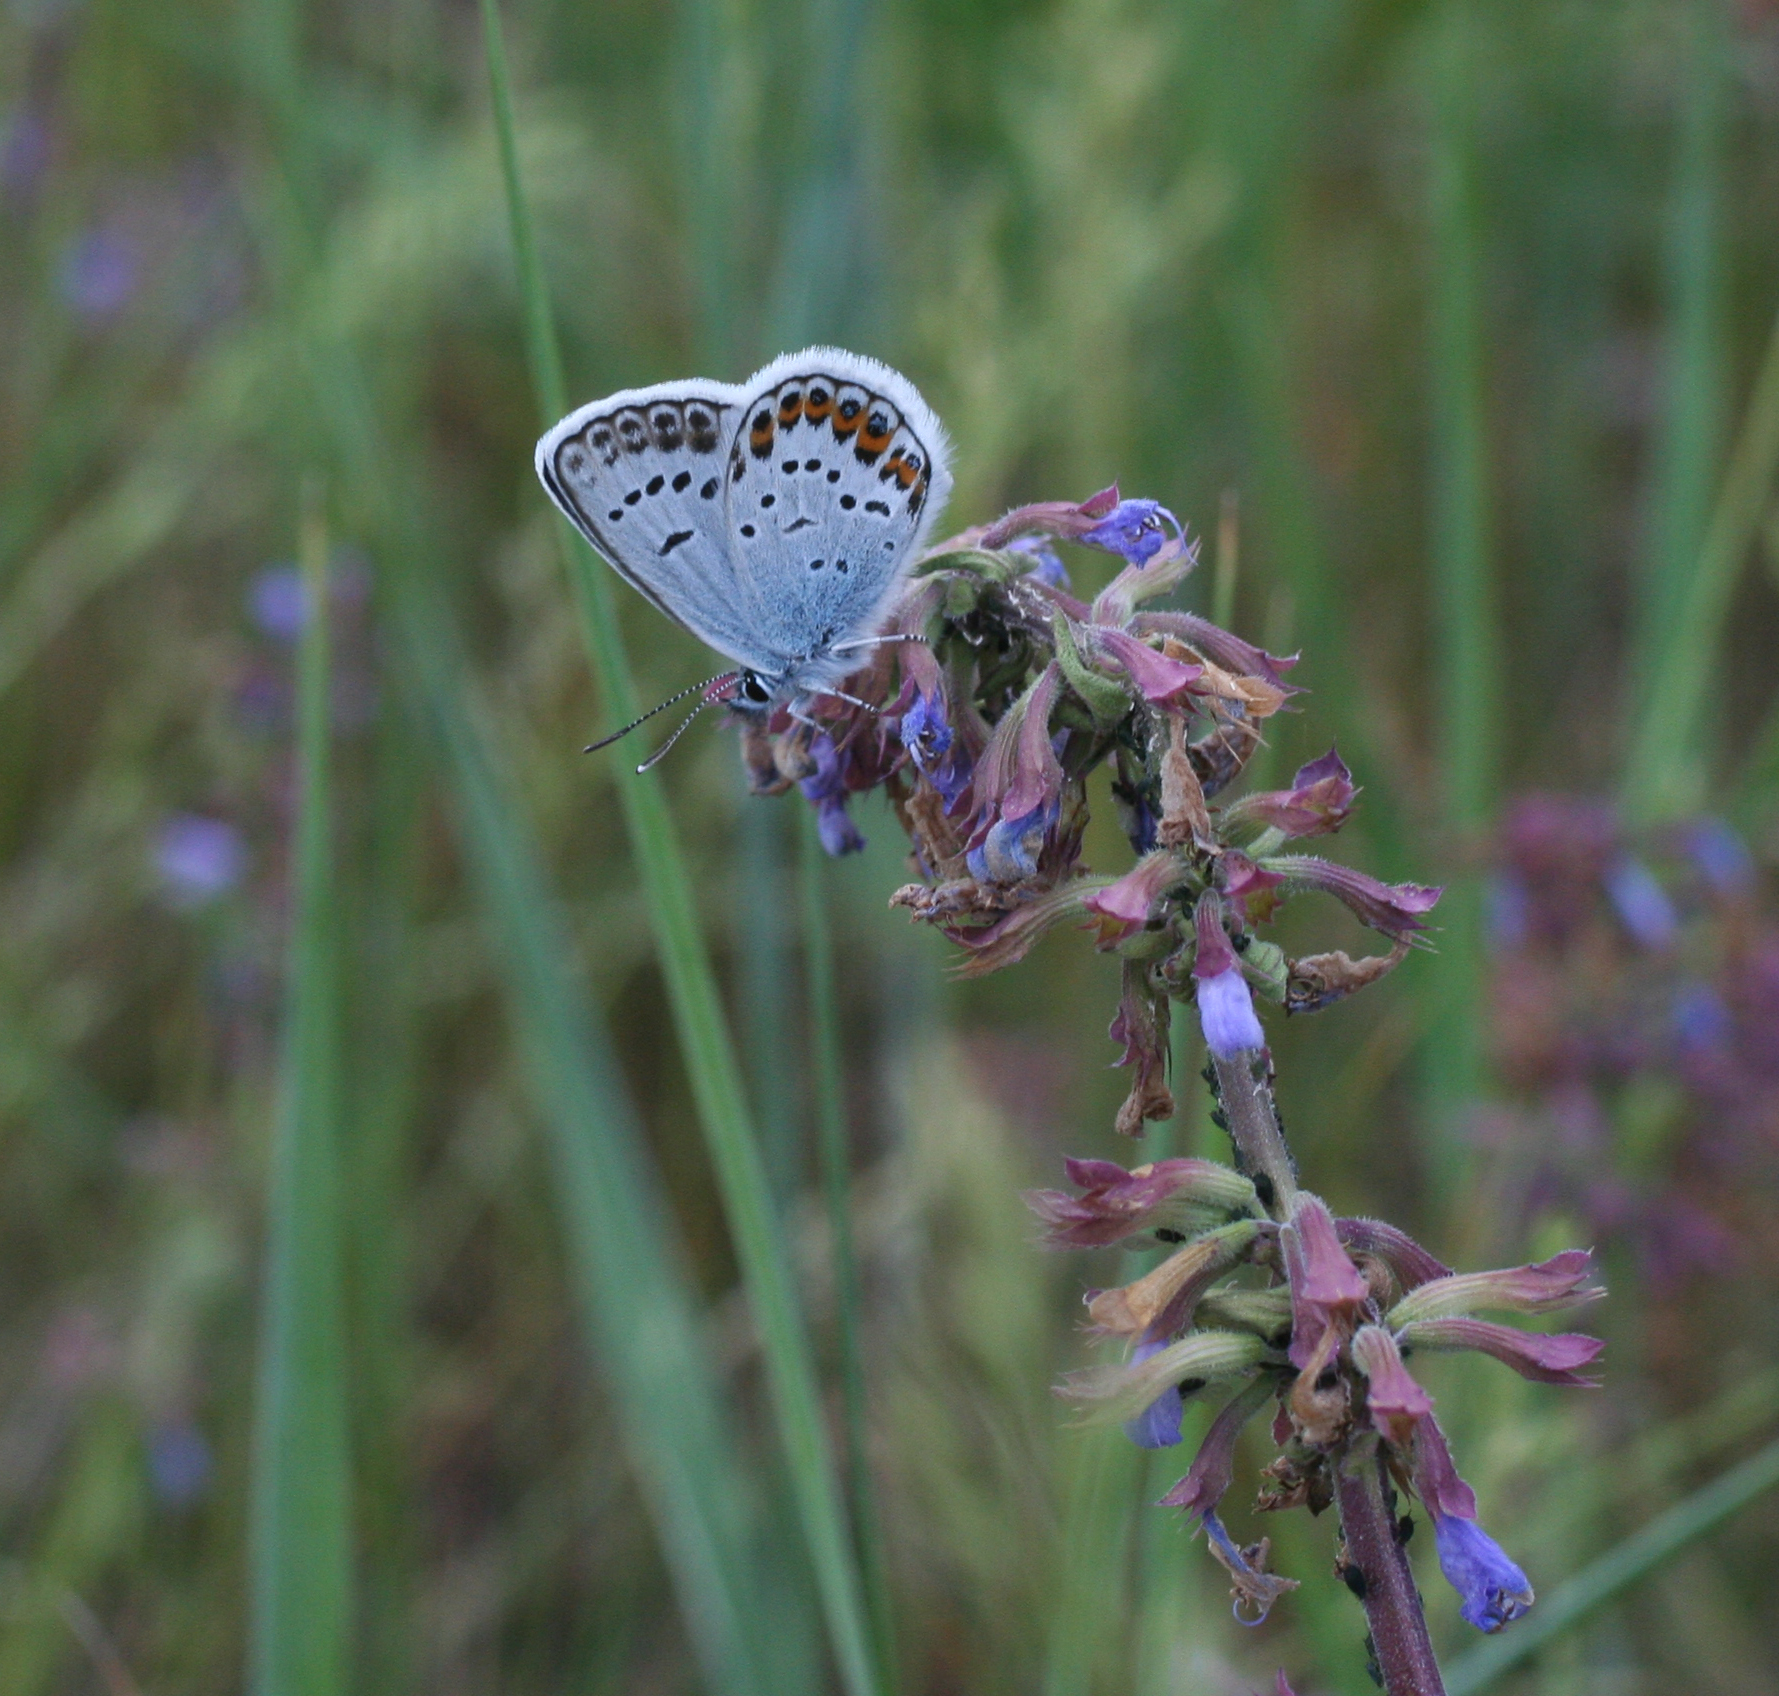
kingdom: Animalia
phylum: Arthropoda
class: Insecta
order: Lepidoptera
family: Lycaenidae
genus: Plebejus
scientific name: Plebejus argus
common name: Silver-studded blue
